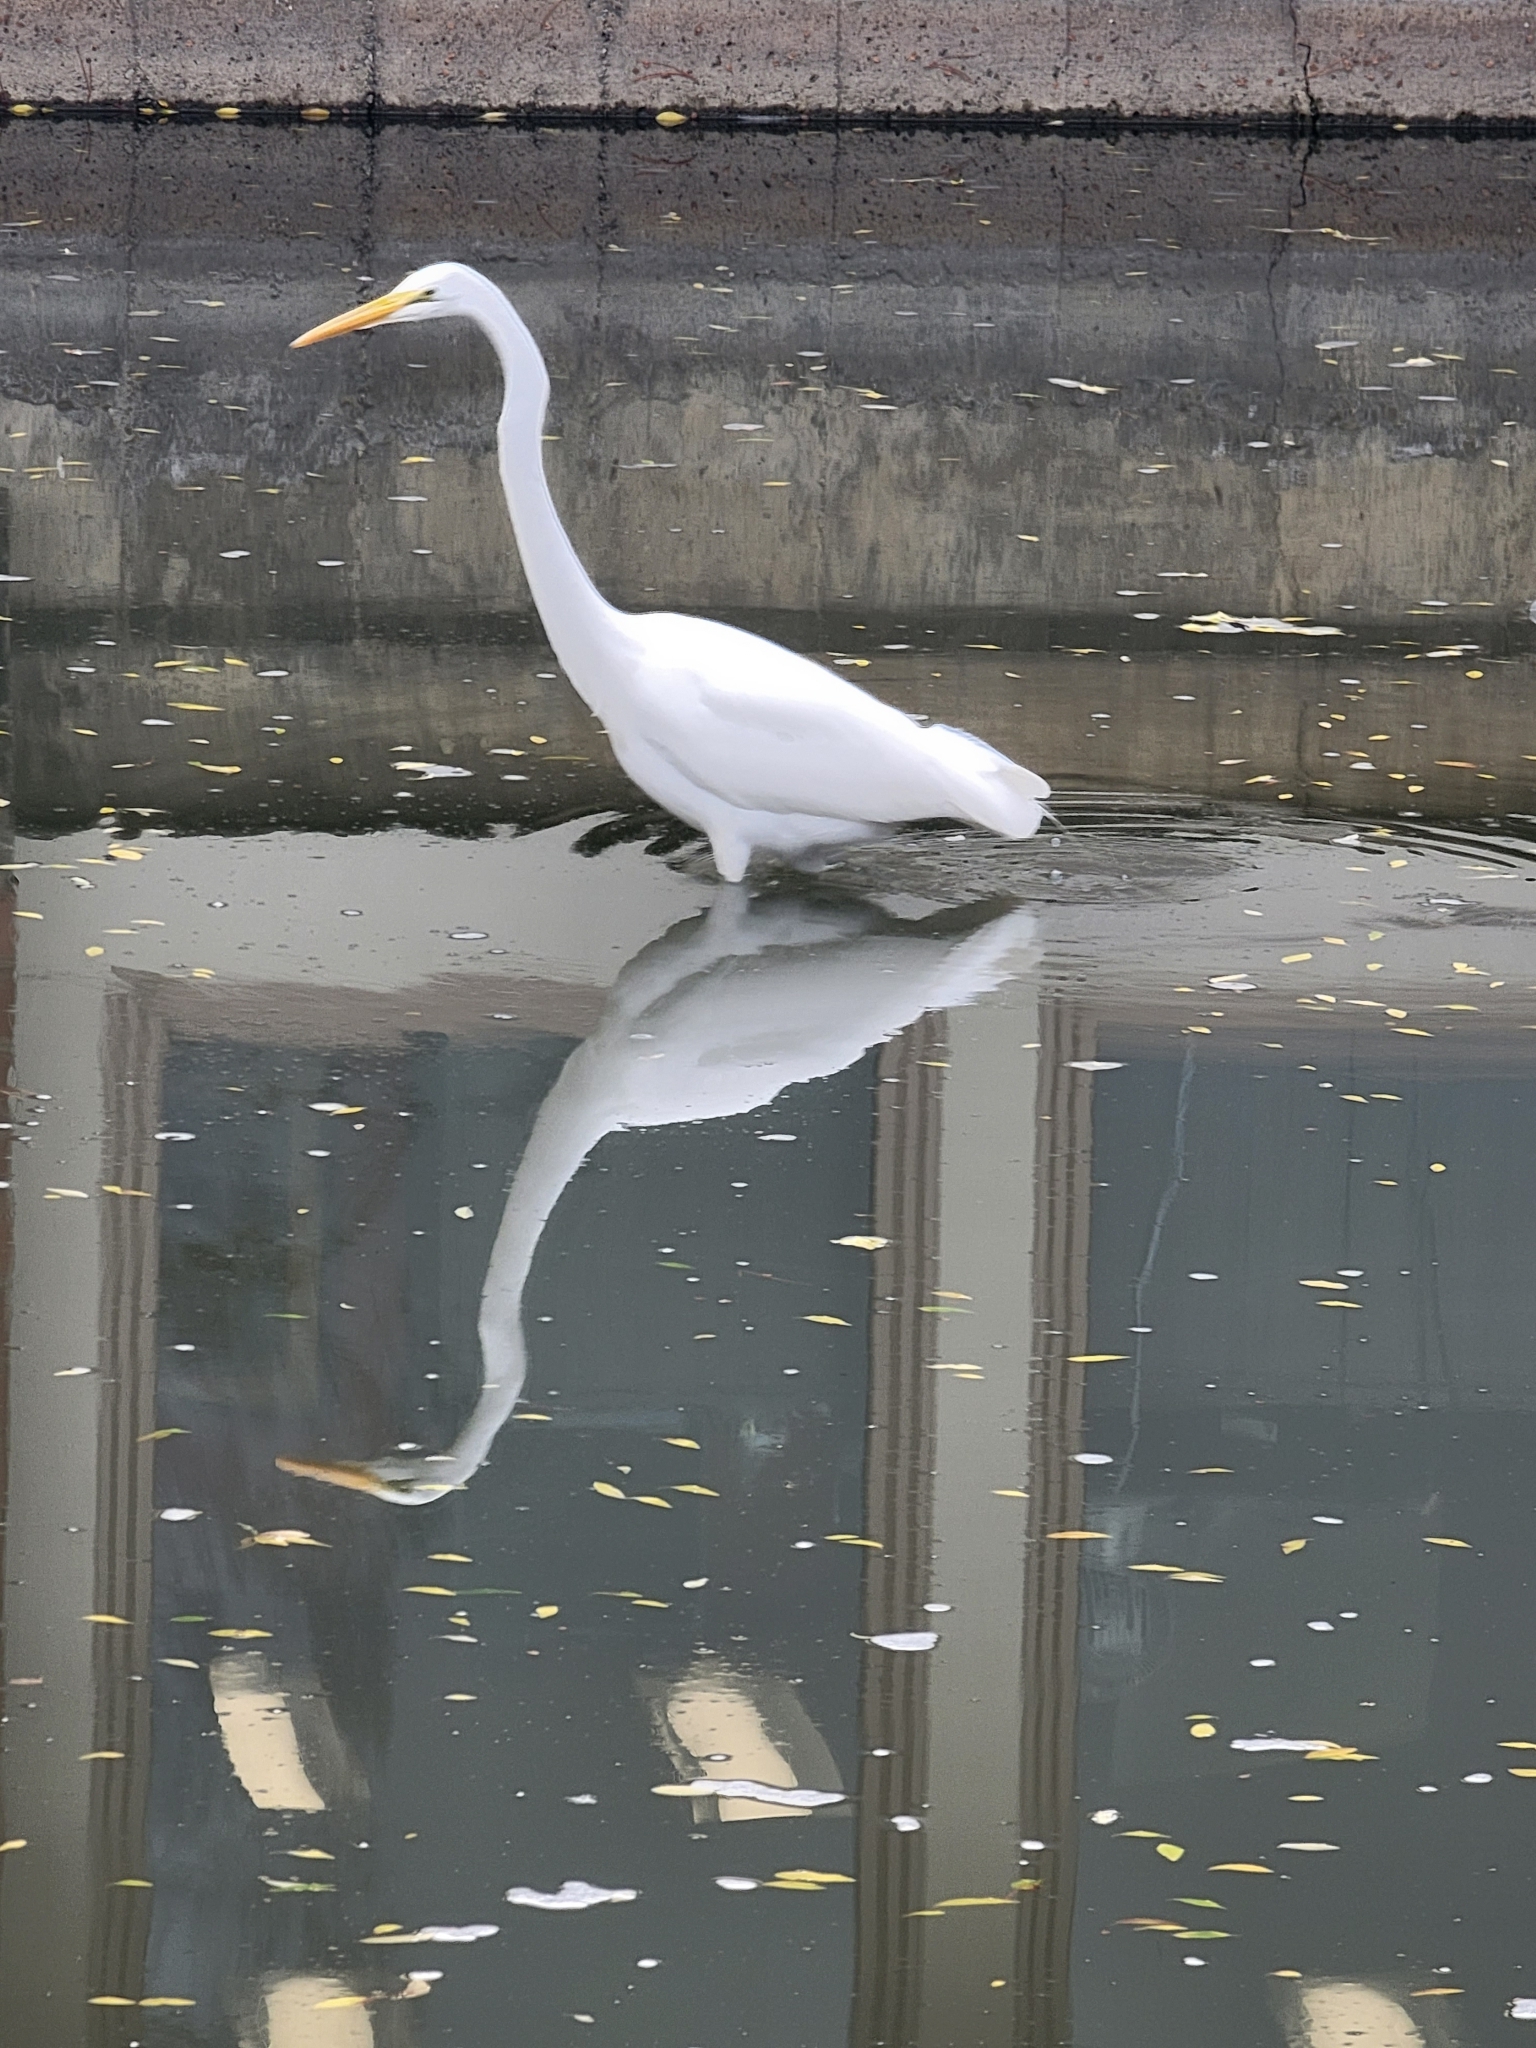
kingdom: Animalia
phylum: Chordata
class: Aves
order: Pelecaniformes
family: Ardeidae
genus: Ardea
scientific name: Ardea alba
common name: Great egret
